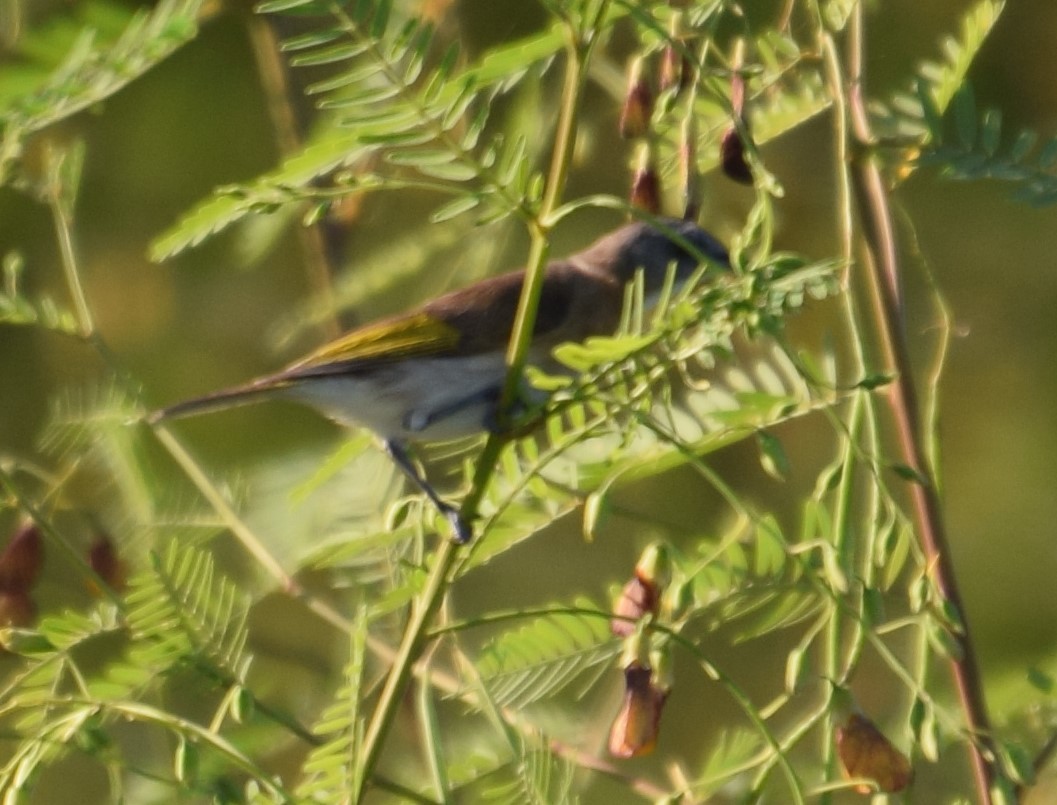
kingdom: Animalia
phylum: Chordata
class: Aves
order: Passeriformes
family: Meliphagidae
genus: Conopophila
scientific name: Conopophila albogularis
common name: Rufous-banded honeyeater
